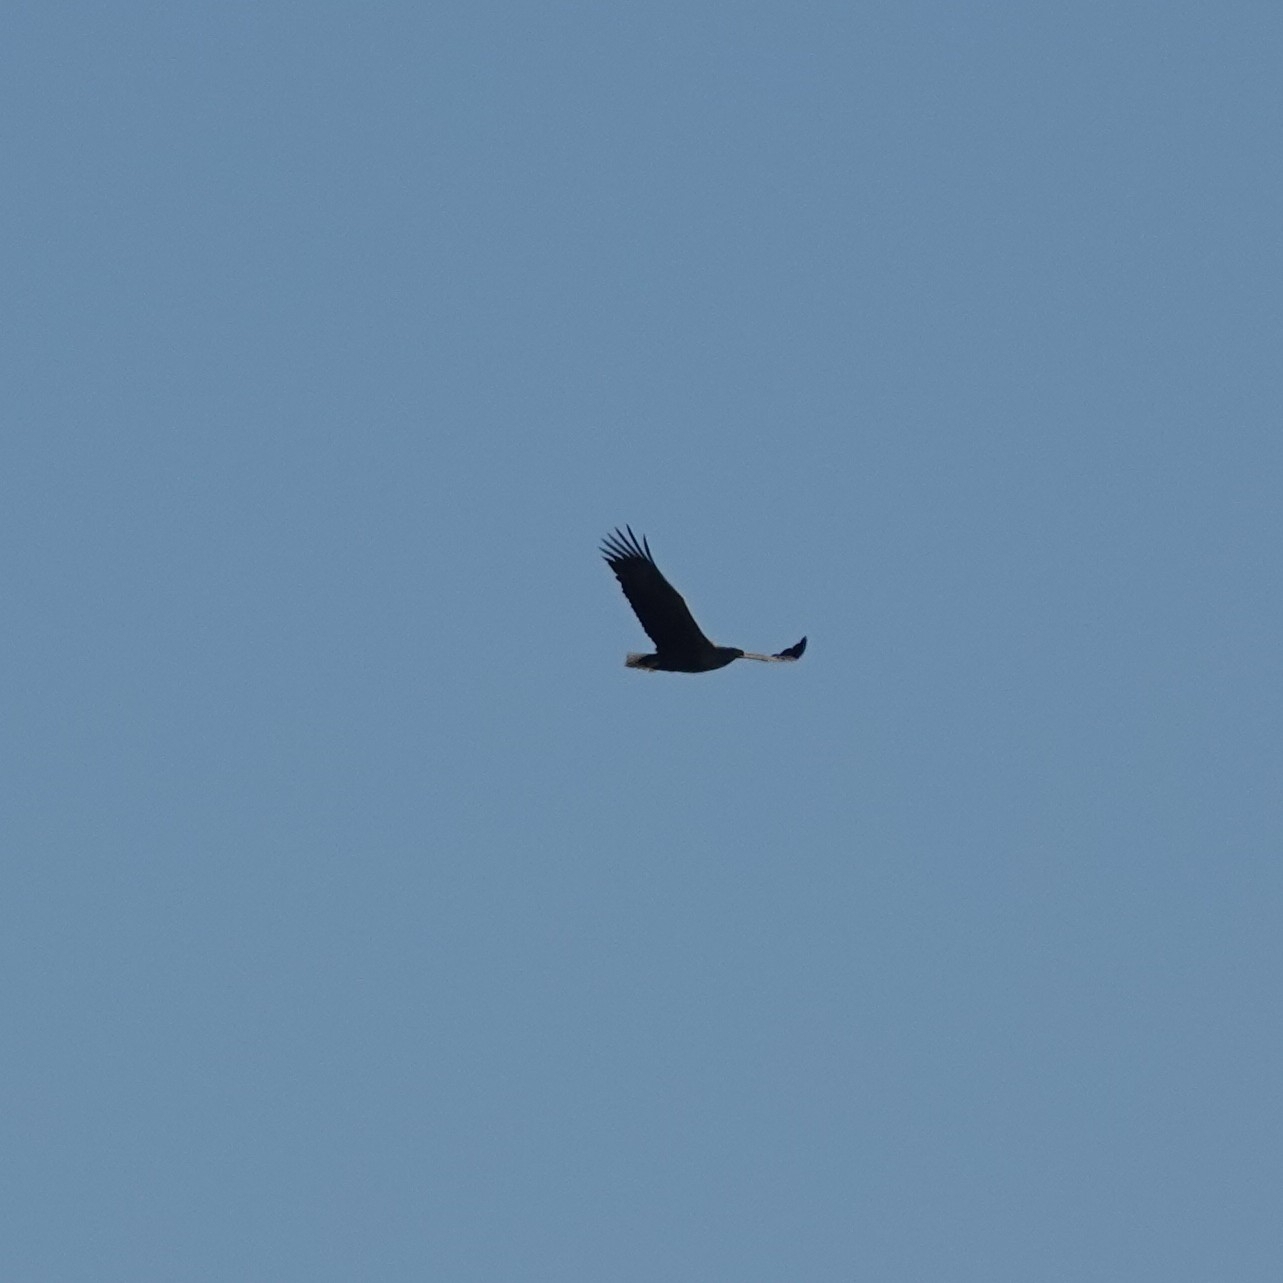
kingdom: Animalia
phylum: Chordata
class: Aves
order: Accipitriformes
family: Accipitridae
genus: Haliaeetus
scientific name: Haliaeetus albicilla
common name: White-tailed eagle
